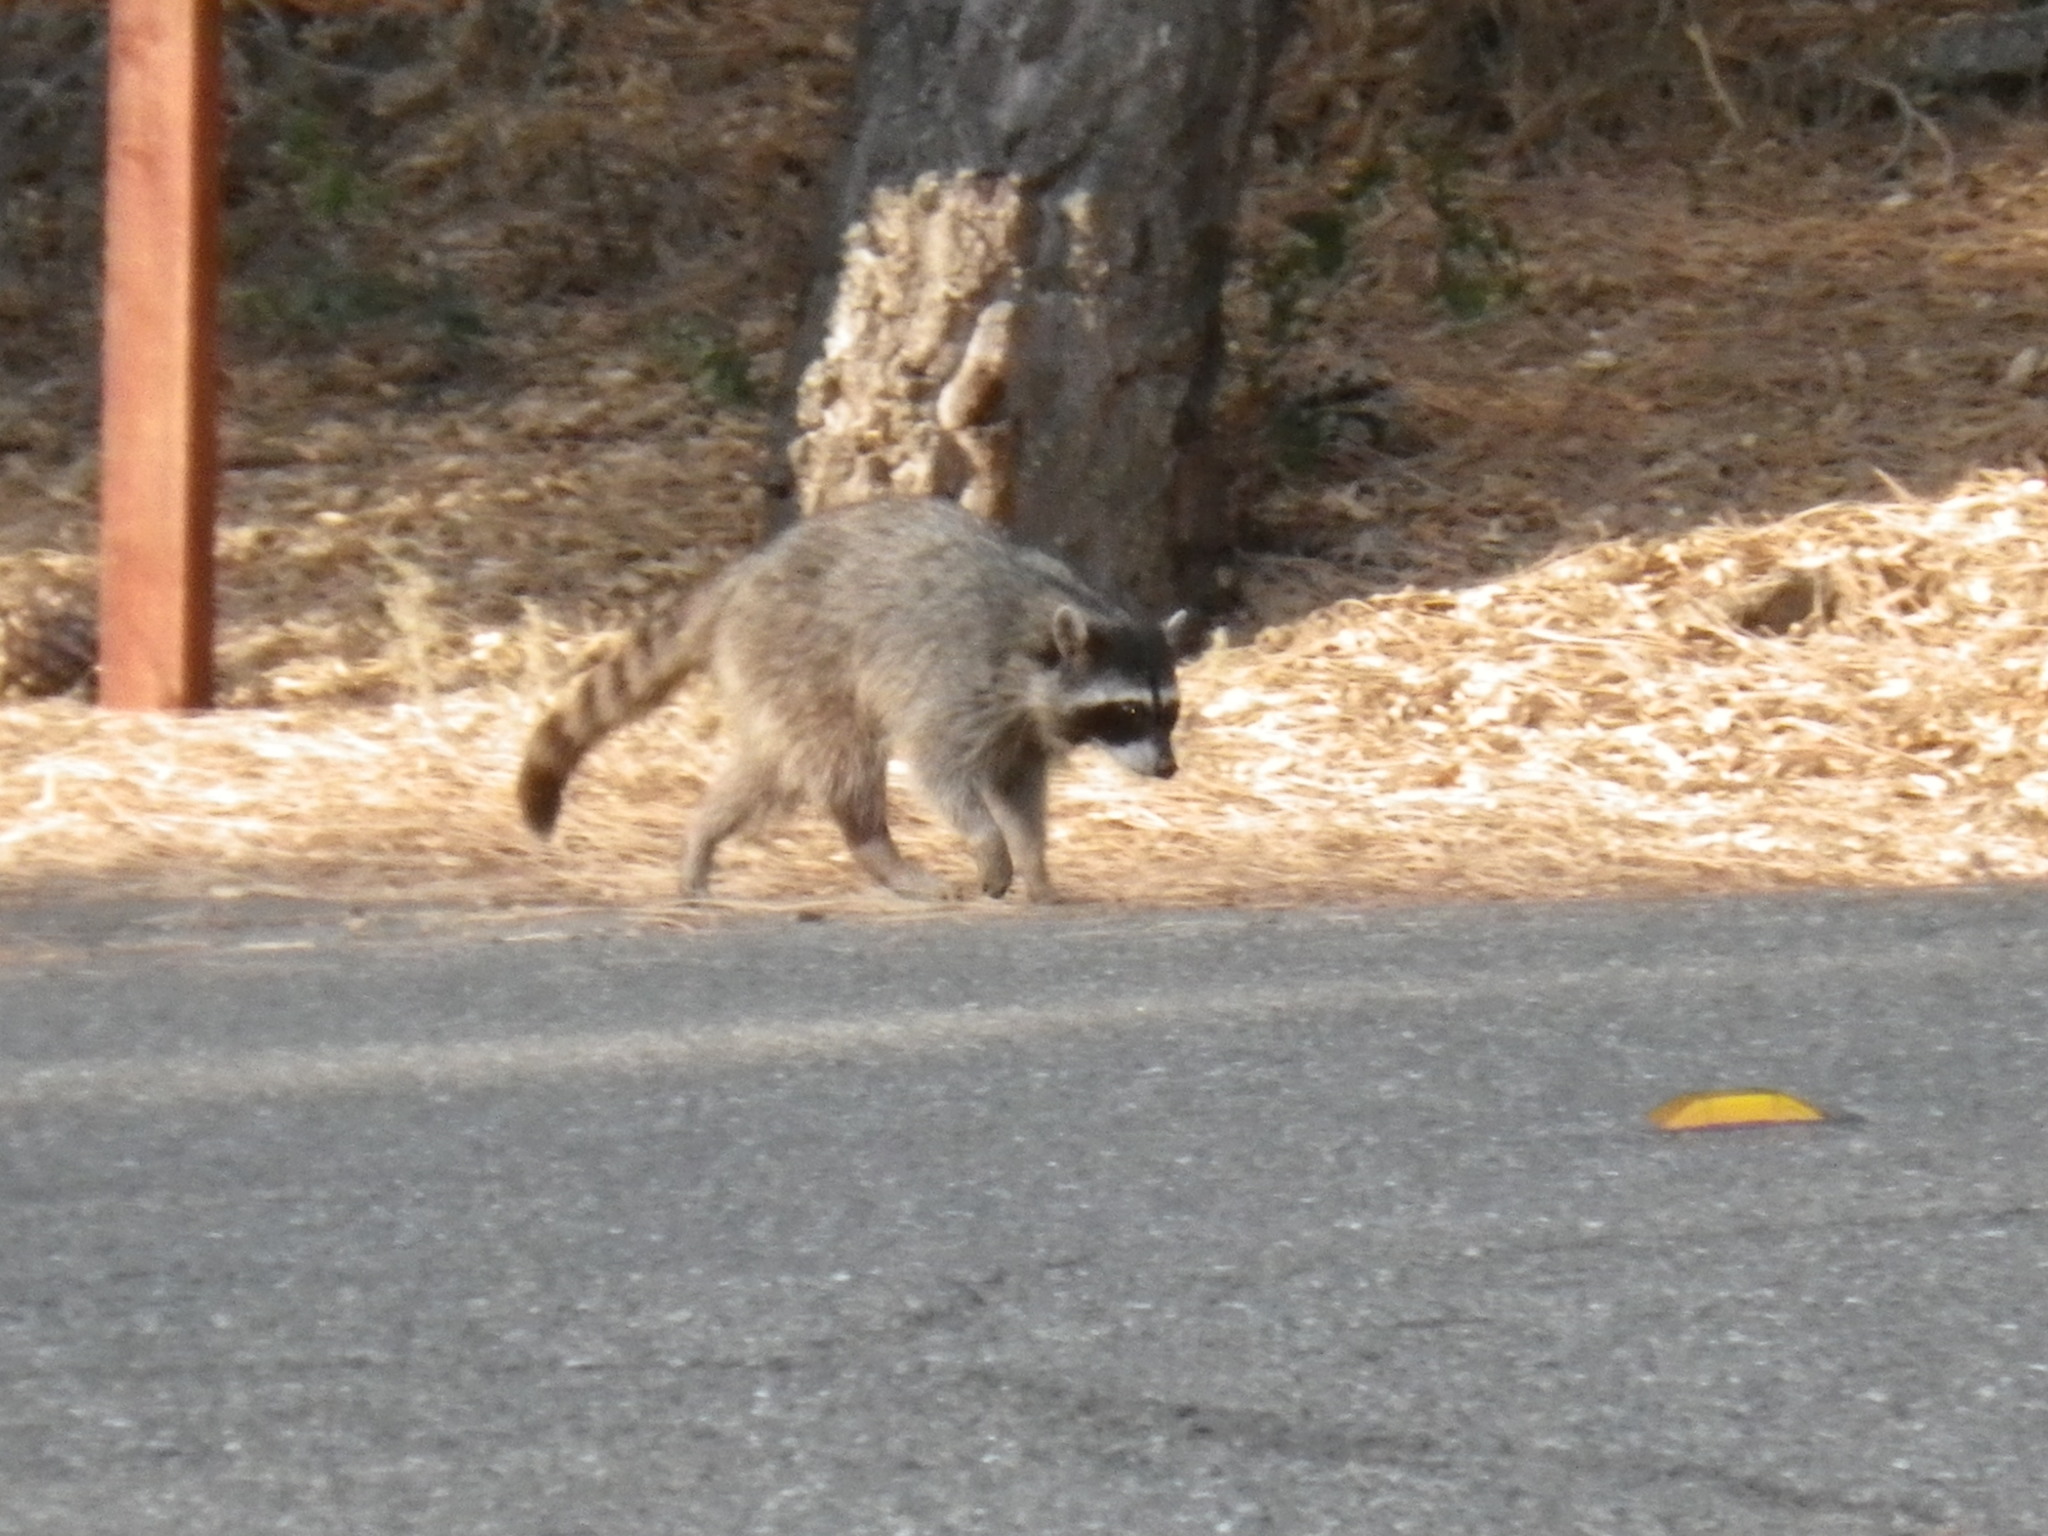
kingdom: Animalia
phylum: Chordata
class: Mammalia
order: Carnivora
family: Procyonidae
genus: Procyon
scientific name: Procyon lotor
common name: Raccoon
